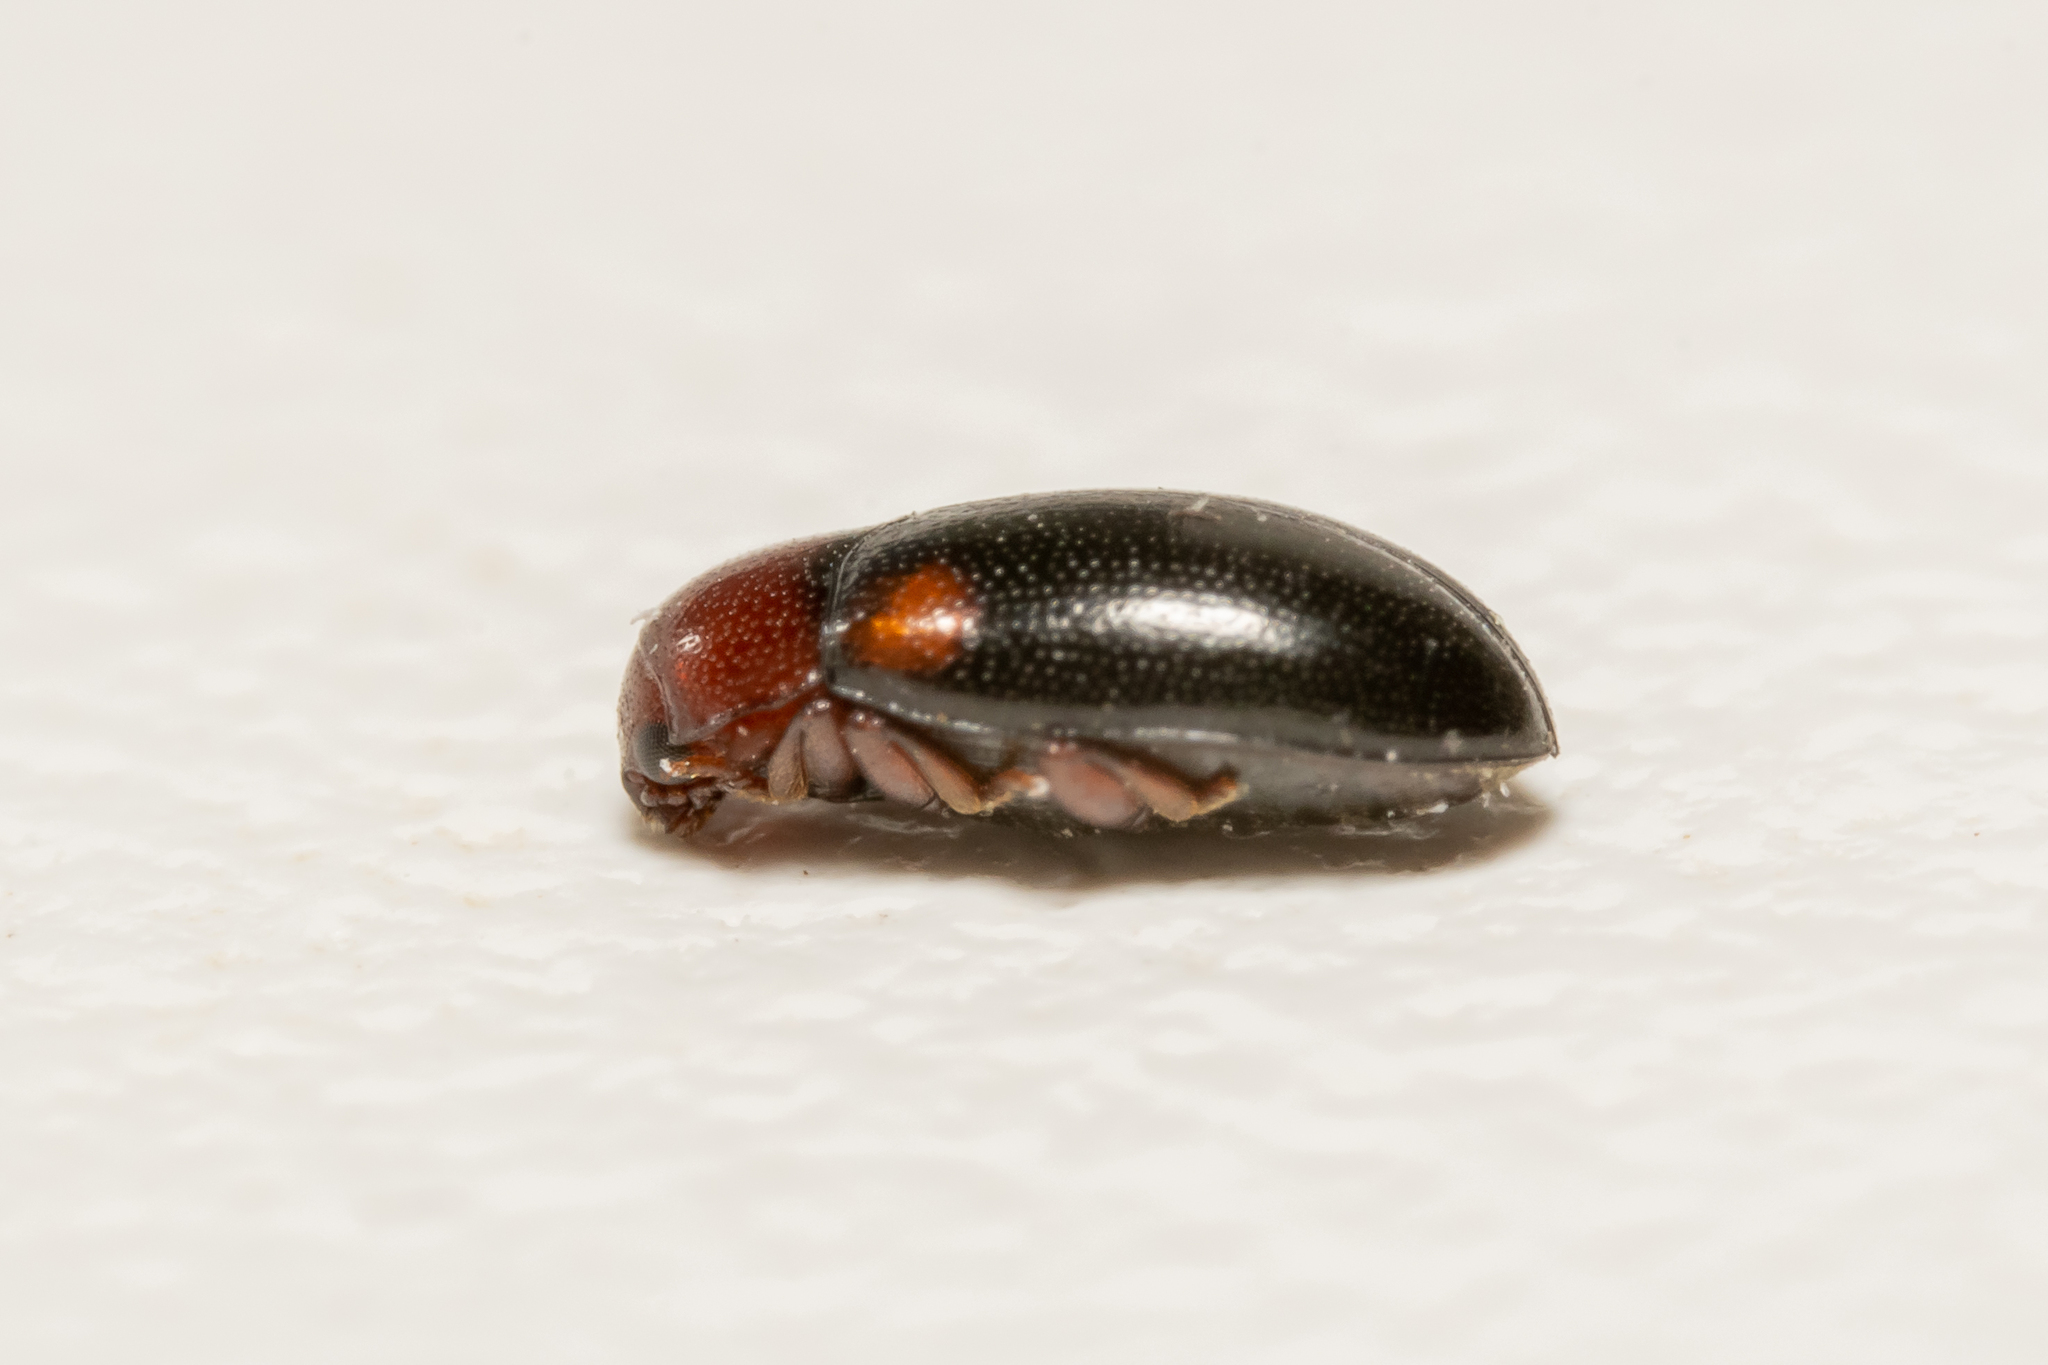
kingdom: Animalia
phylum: Arthropoda
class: Insecta
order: Coleoptera
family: Erotylidae
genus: Dacne
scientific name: Dacne bipustulata
